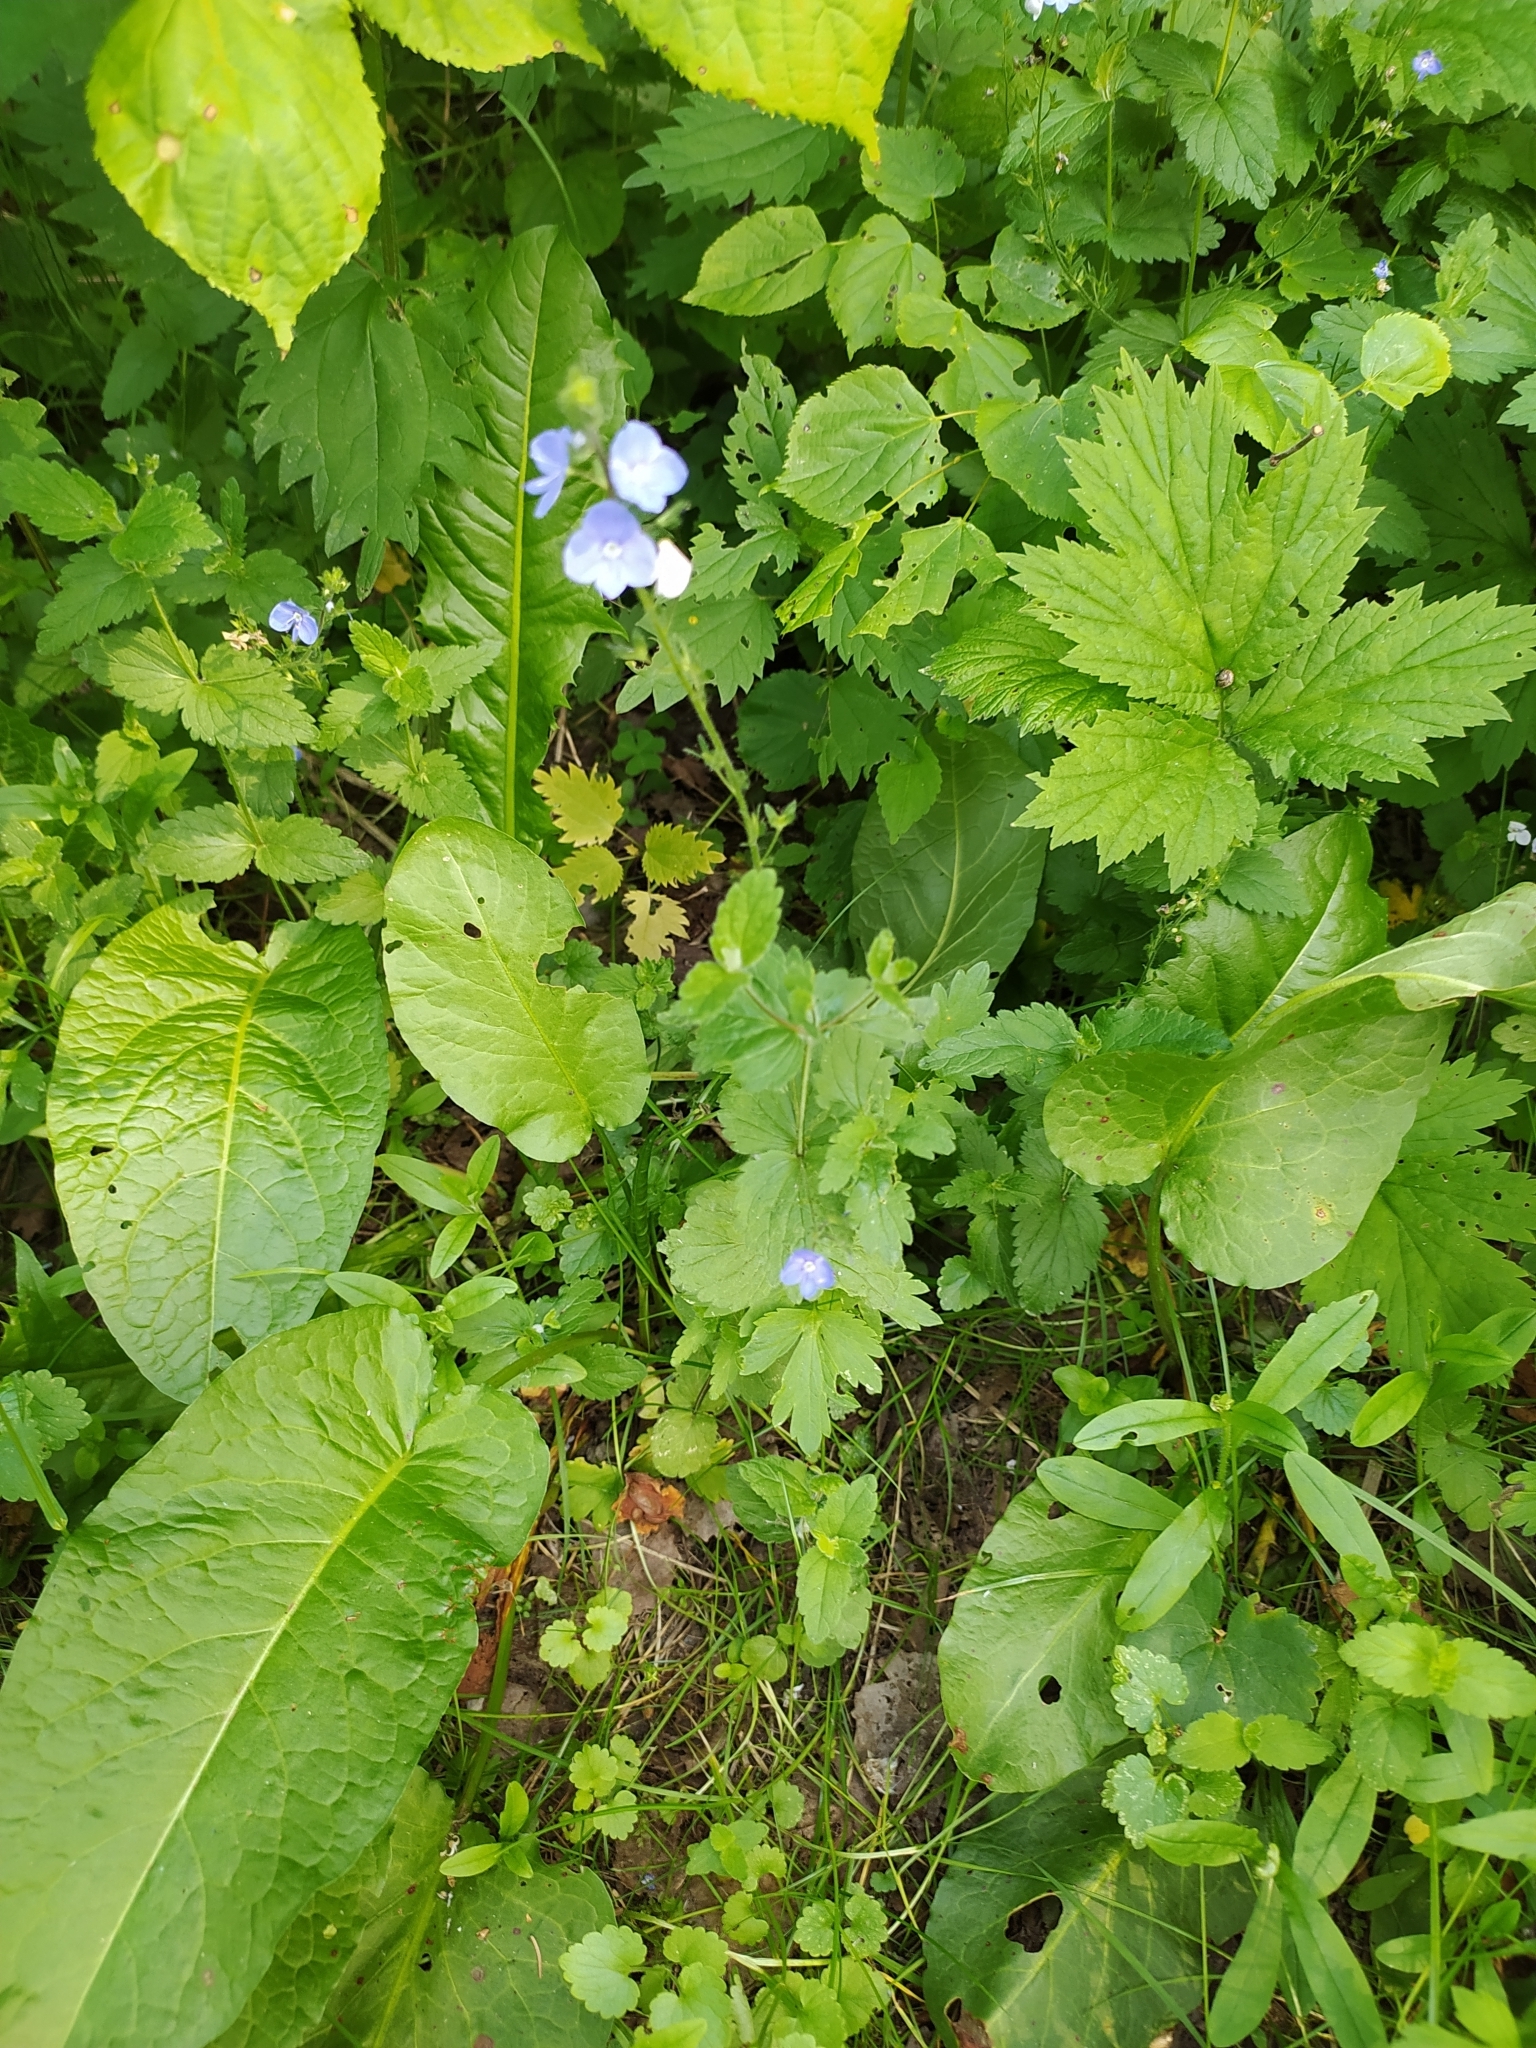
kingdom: Plantae
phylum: Tracheophyta
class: Magnoliopsida
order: Lamiales
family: Plantaginaceae
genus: Veronica
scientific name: Veronica chamaedrys
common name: Germander speedwell
